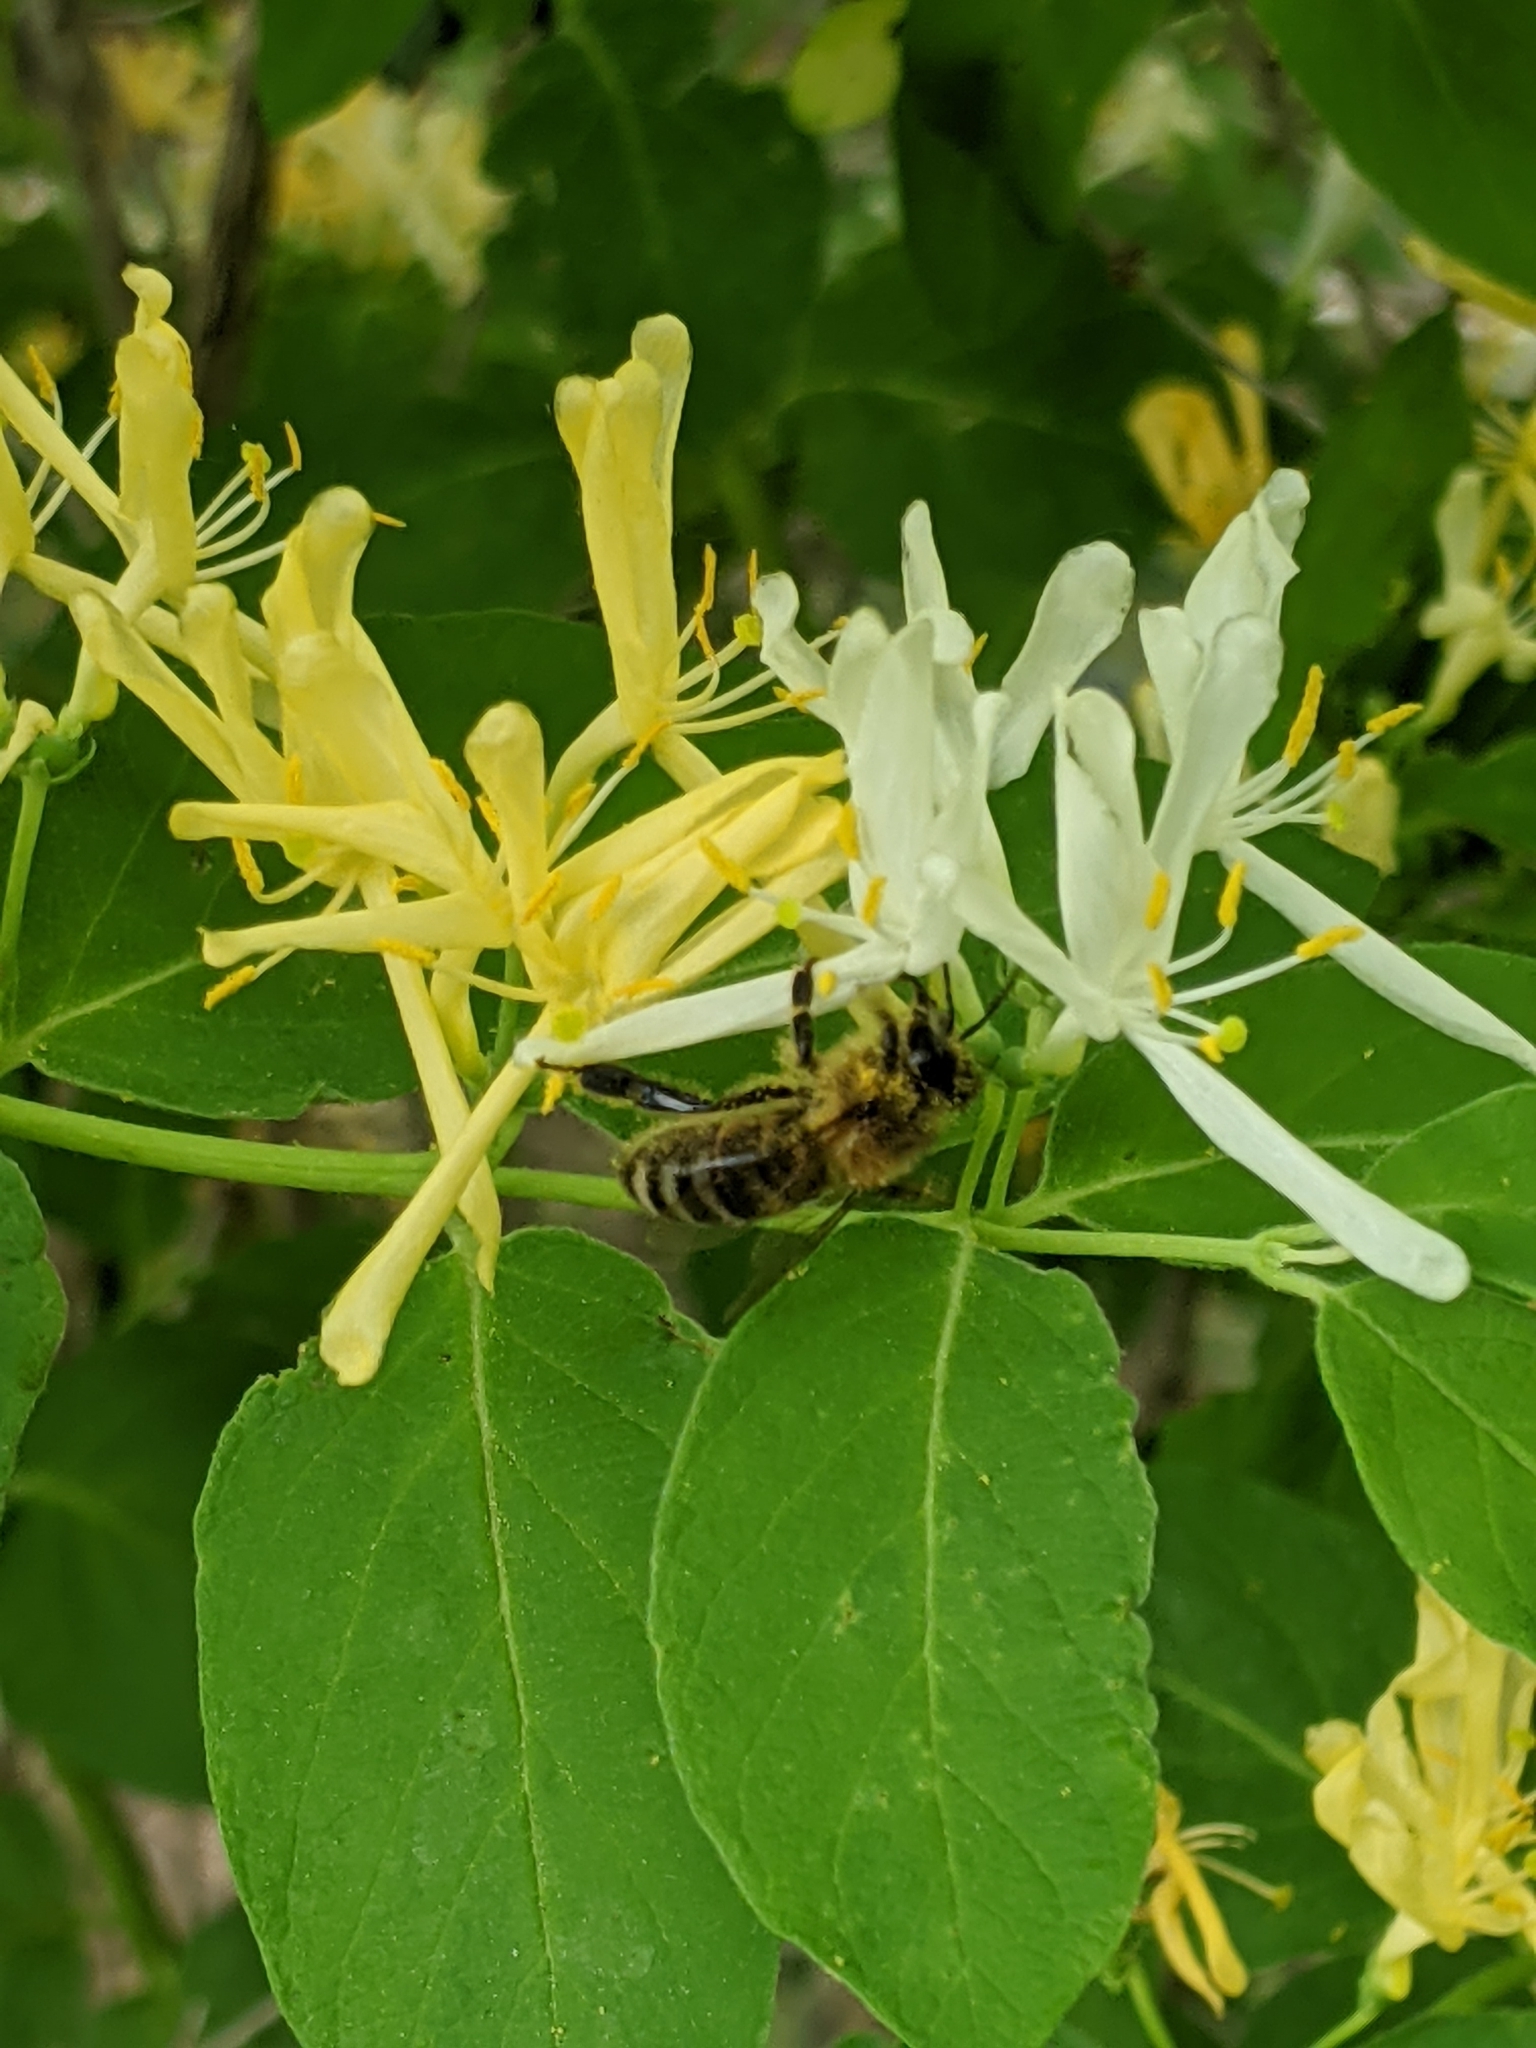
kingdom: Animalia
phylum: Arthropoda
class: Insecta
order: Hymenoptera
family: Apidae
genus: Apis
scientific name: Apis mellifera
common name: Honey bee
